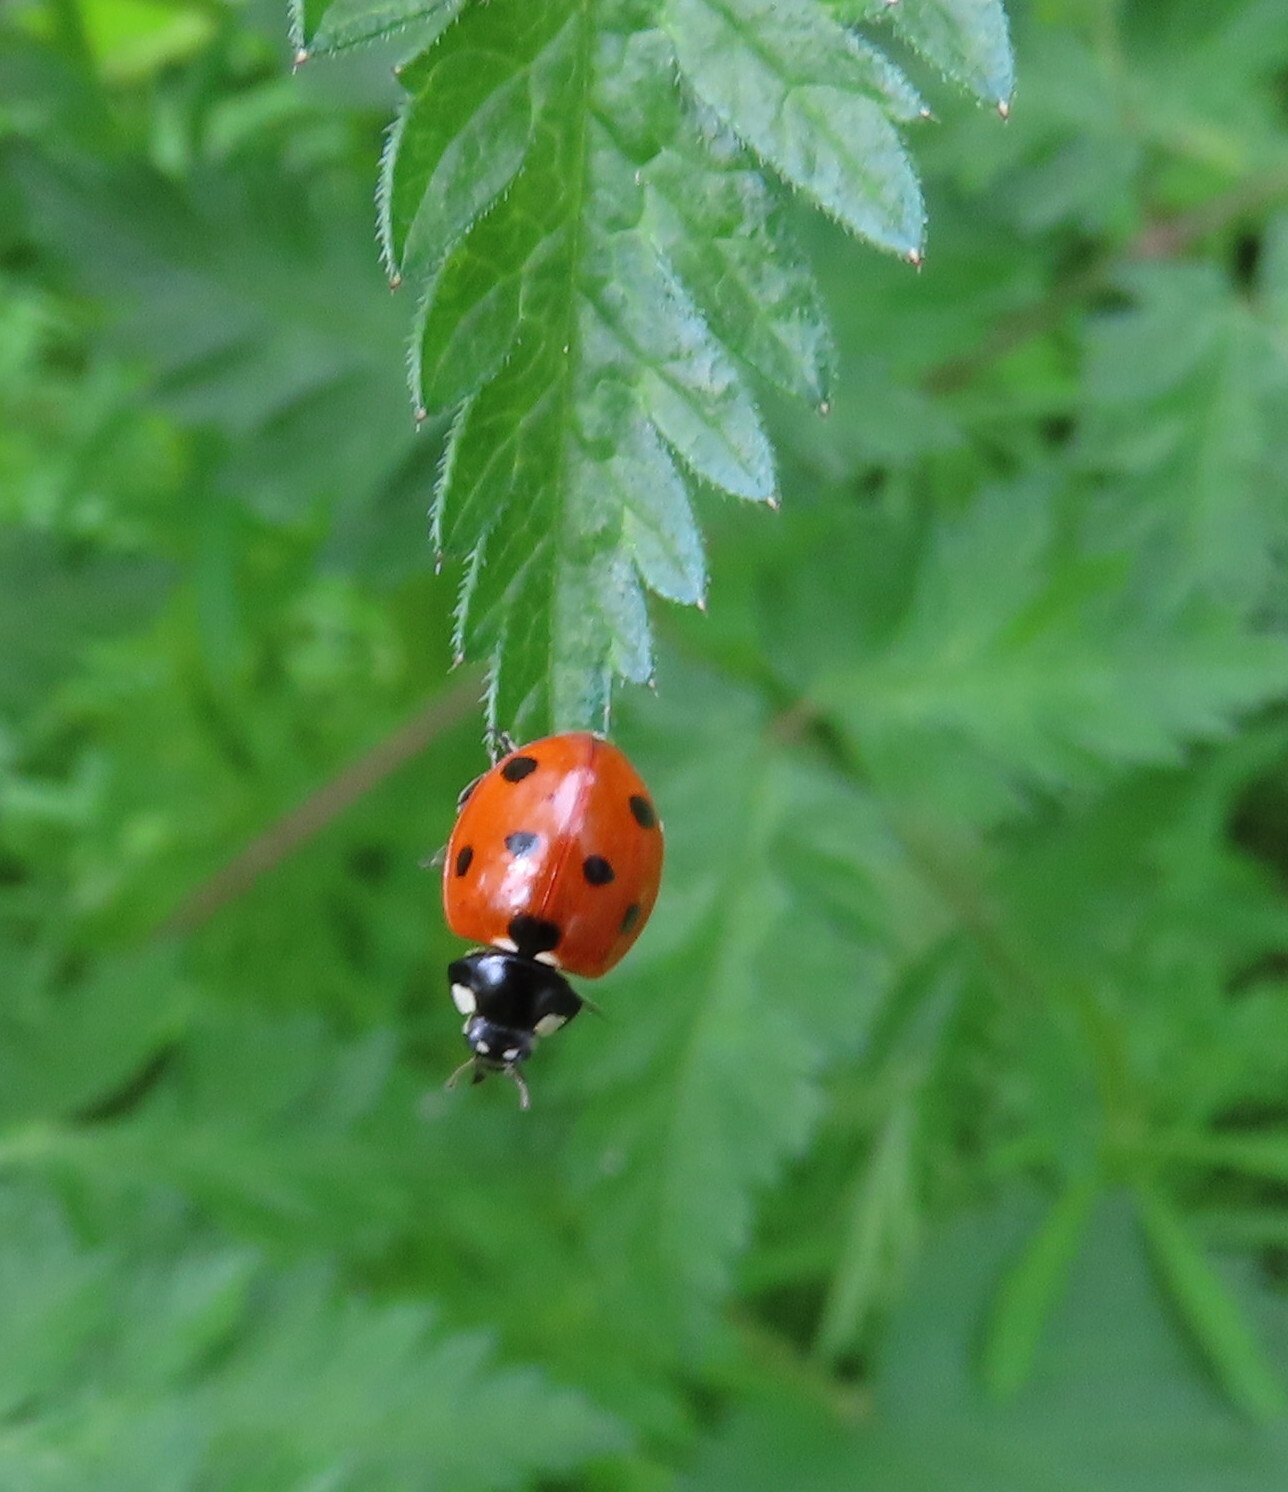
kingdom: Animalia
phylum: Arthropoda
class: Insecta
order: Coleoptera
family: Coccinellidae
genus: Coccinella
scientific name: Coccinella septempunctata
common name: Sevenspotted lady beetle
